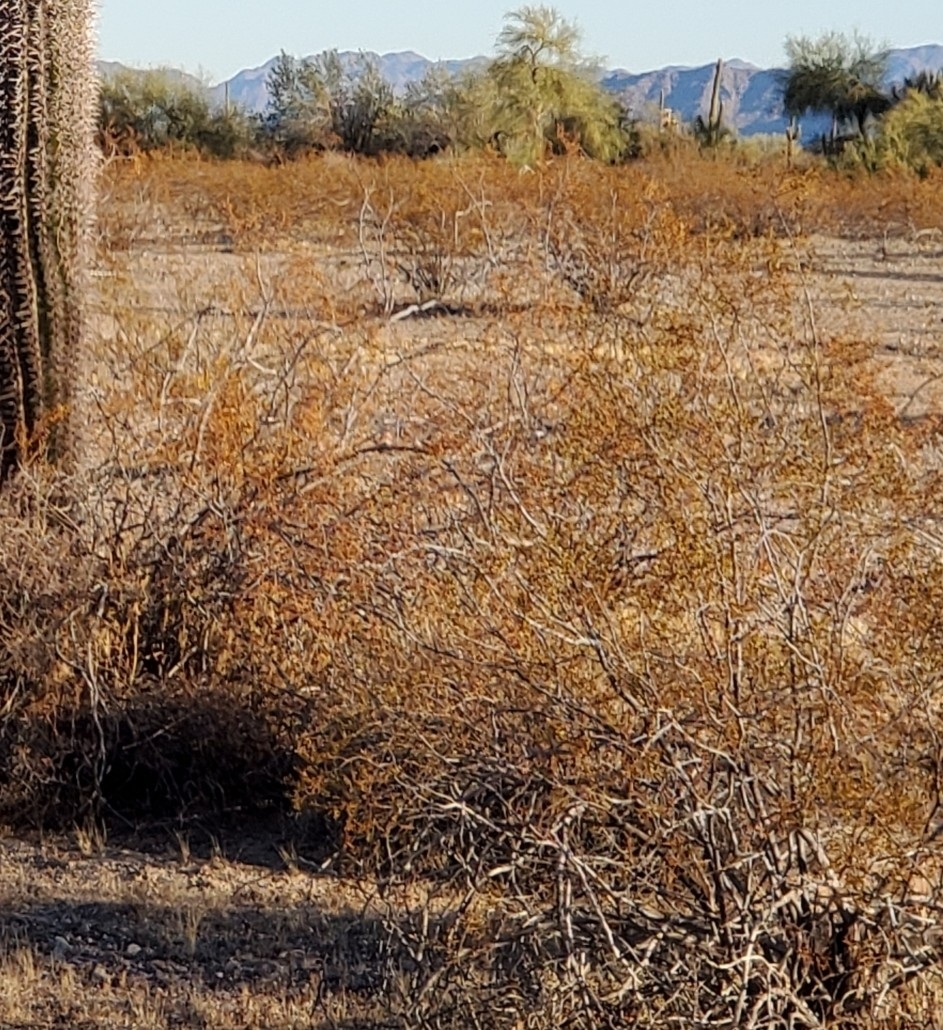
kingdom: Plantae
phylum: Tracheophyta
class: Magnoliopsida
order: Zygophyllales
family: Zygophyllaceae
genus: Larrea
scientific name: Larrea tridentata
